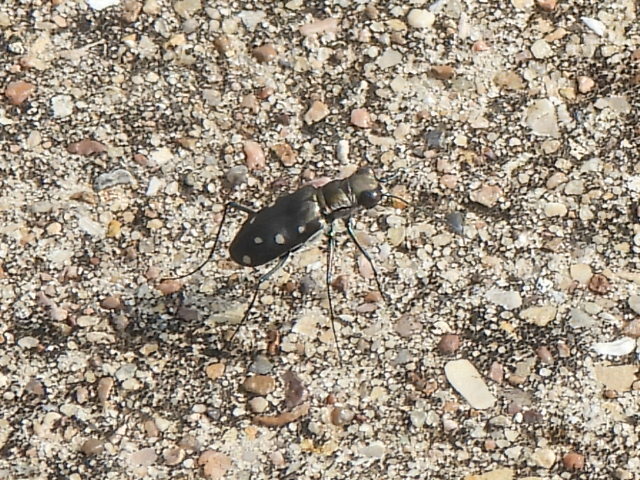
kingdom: Animalia
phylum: Arthropoda
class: Insecta
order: Coleoptera
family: Carabidae
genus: Cicindela
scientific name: Cicindela ocellata
